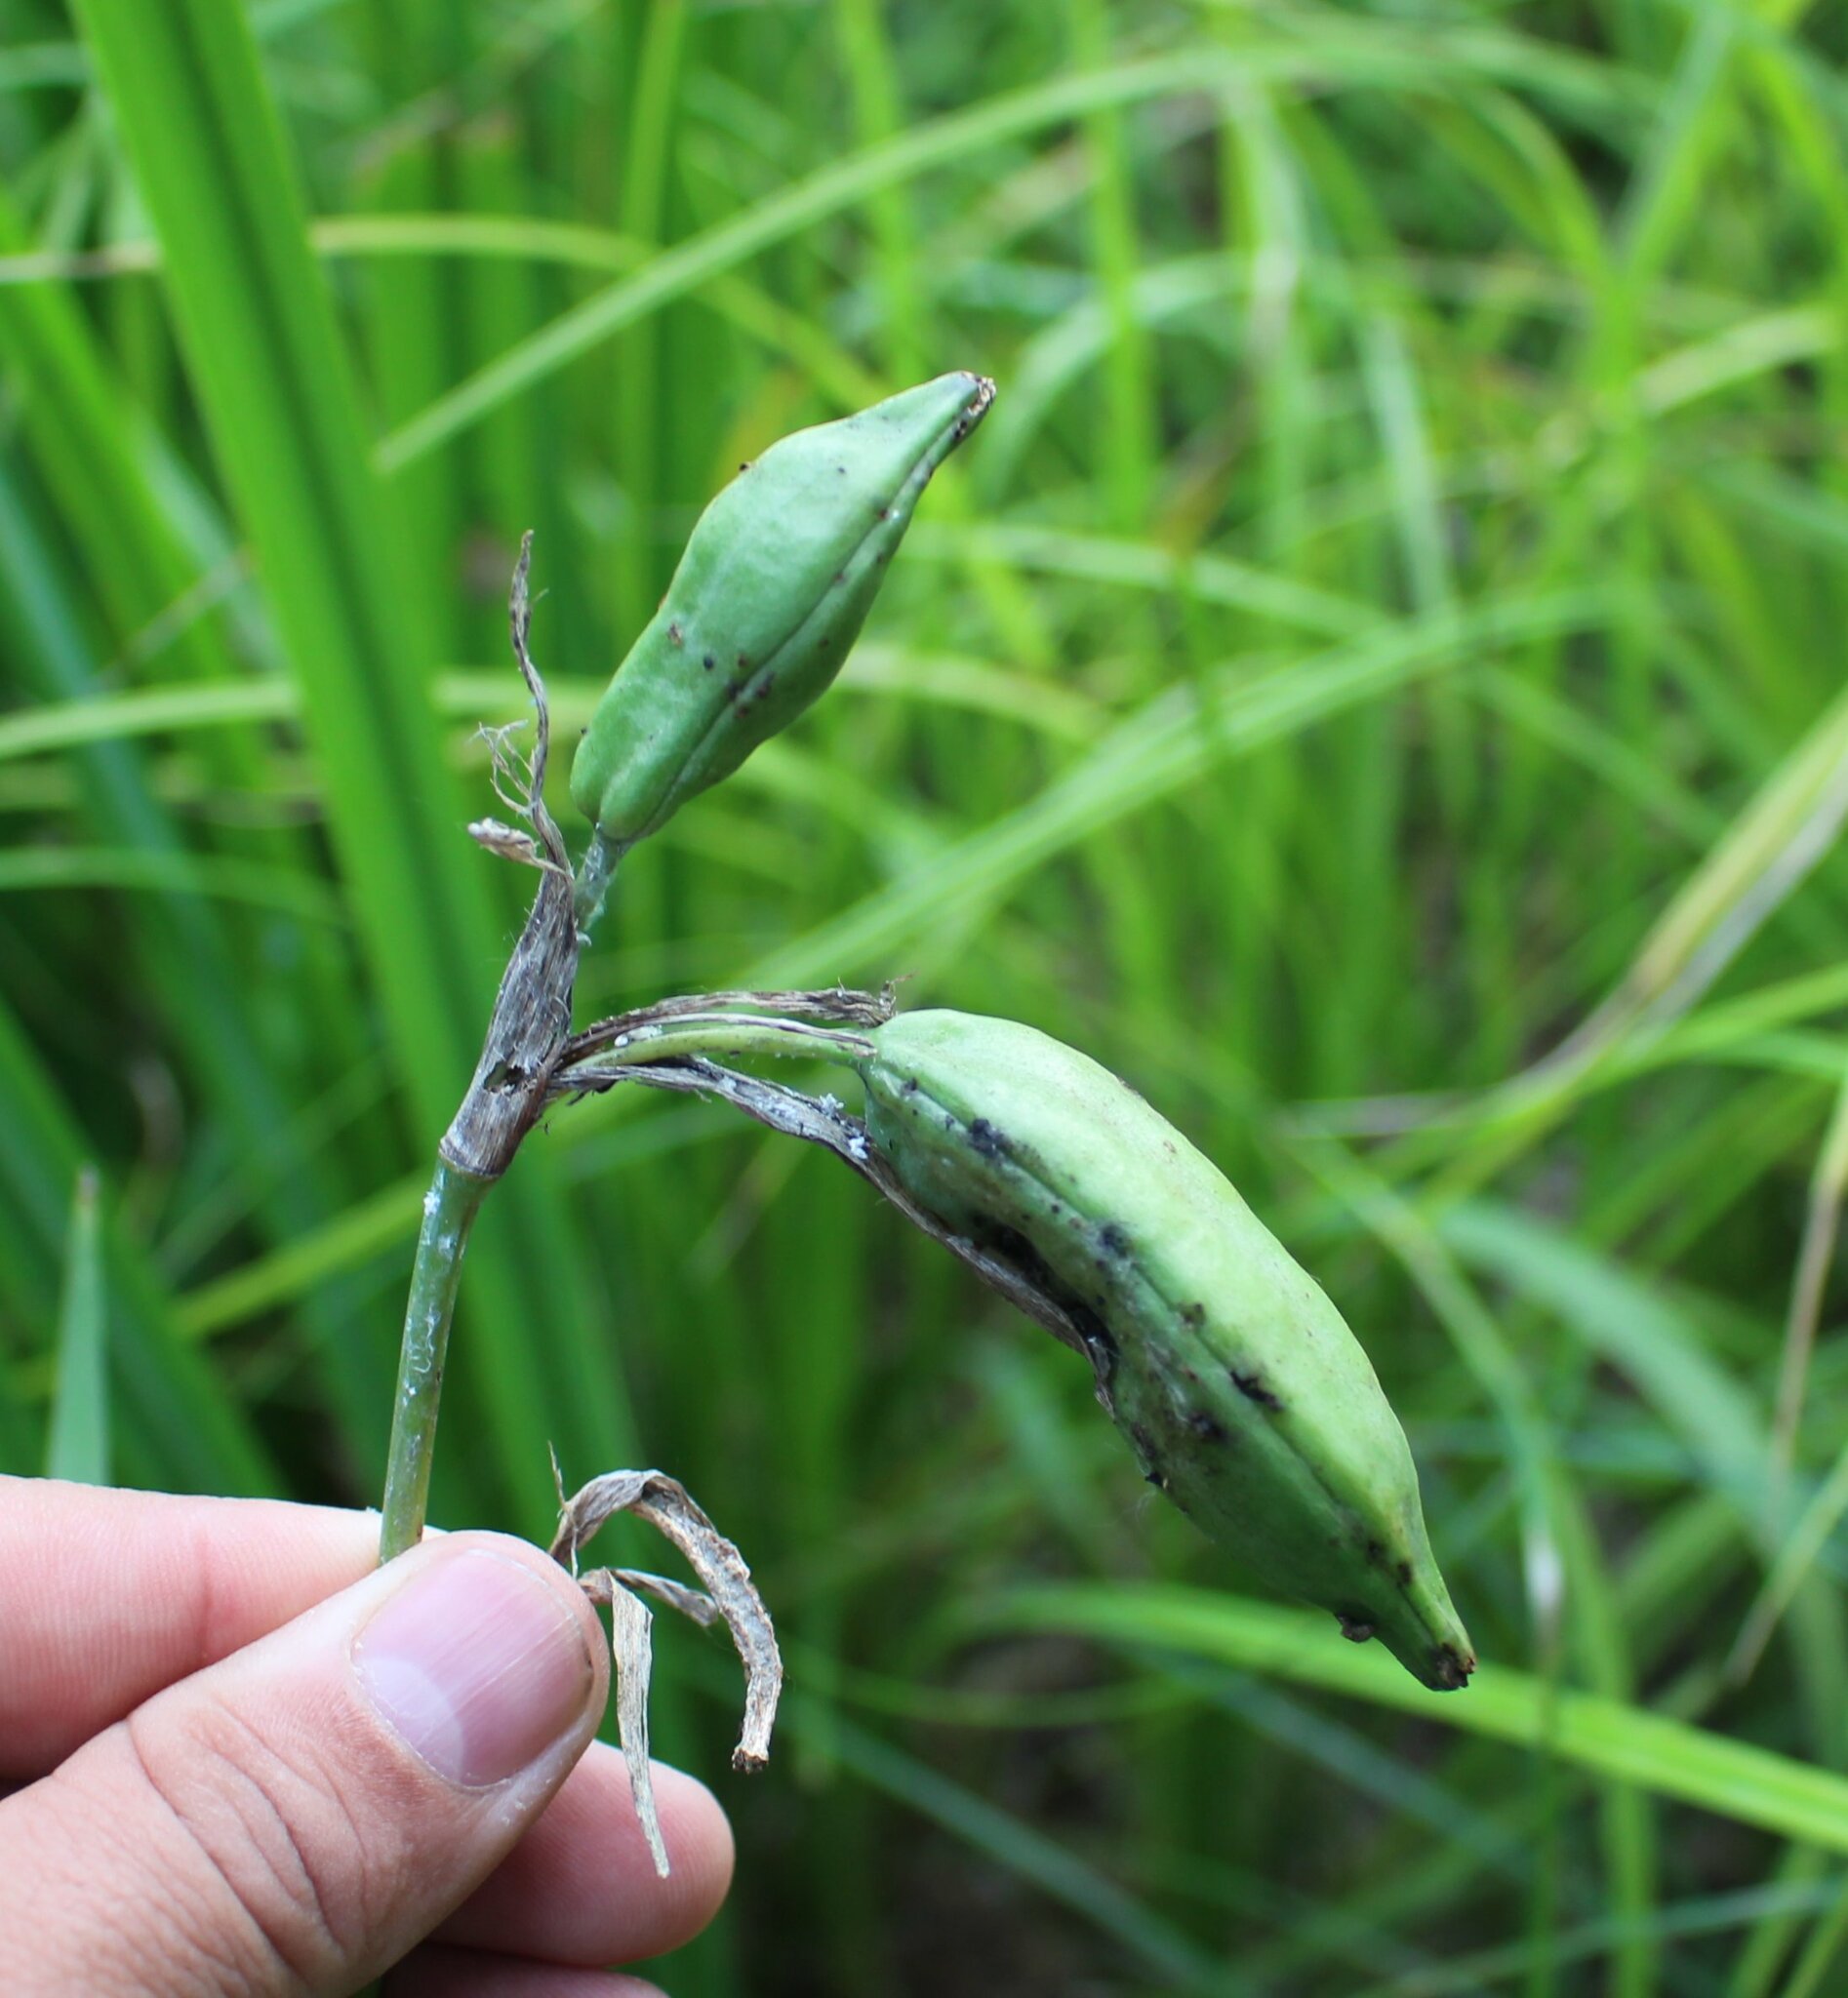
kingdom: Plantae
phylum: Tracheophyta
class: Liliopsida
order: Asparagales
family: Iridaceae
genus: Iris
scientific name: Iris pseudacorus
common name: Yellow flag
